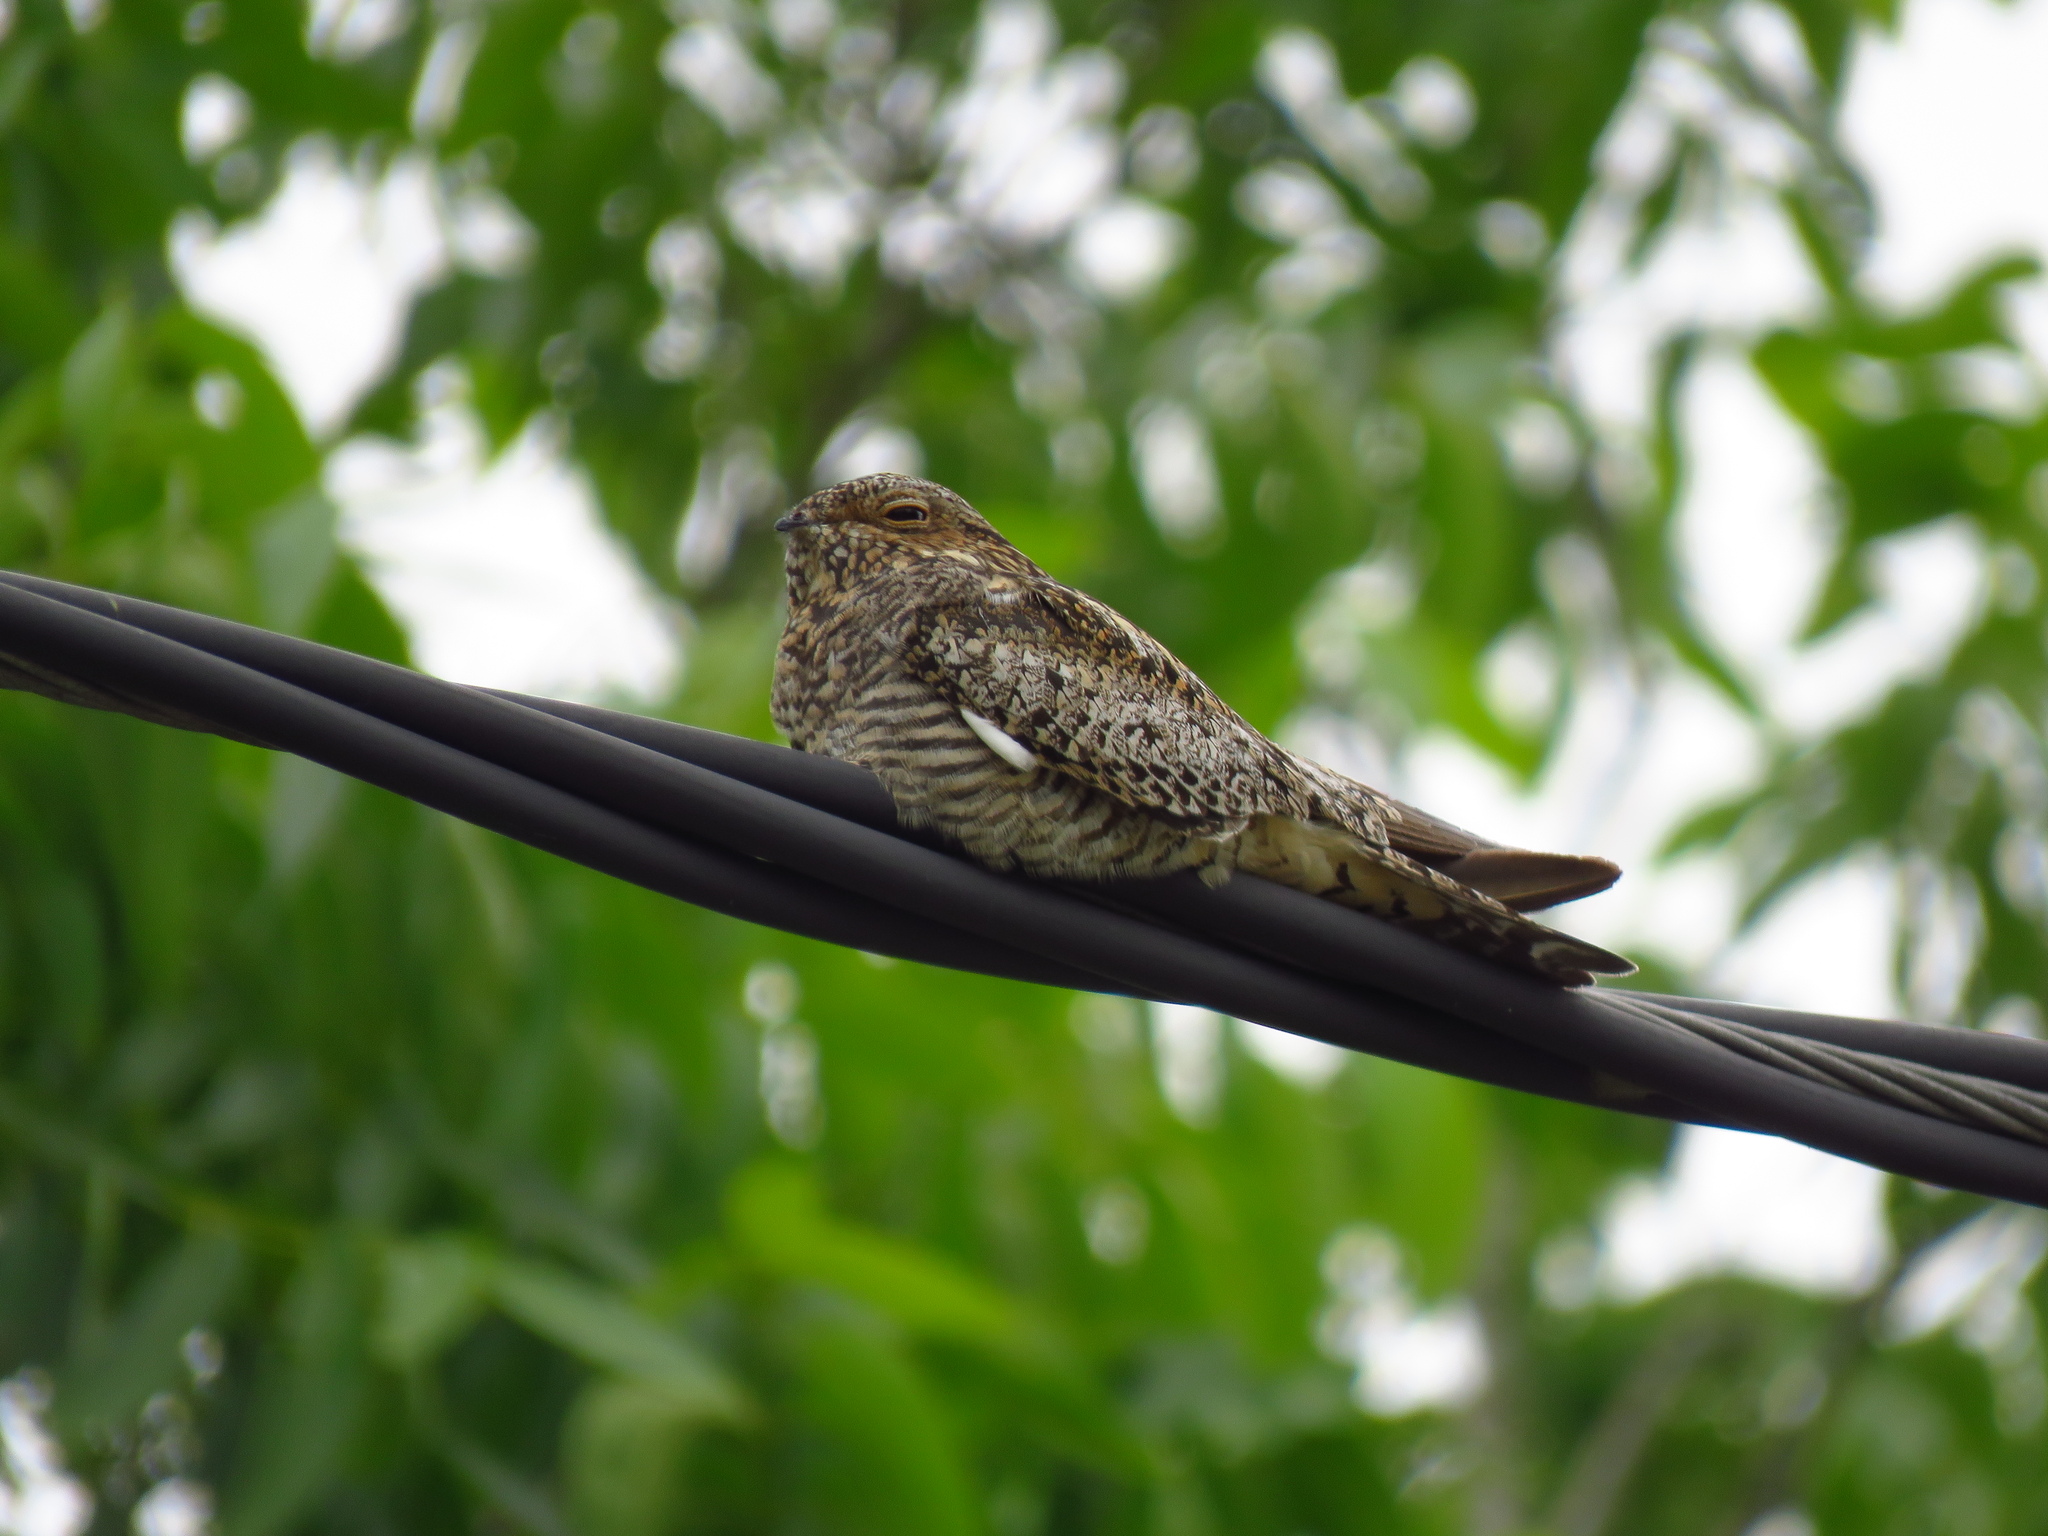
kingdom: Animalia
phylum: Chordata
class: Aves
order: Caprimulgiformes
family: Caprimulgidae
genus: Chordeiles
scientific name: Chordeiles minor
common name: Common nighthawk
